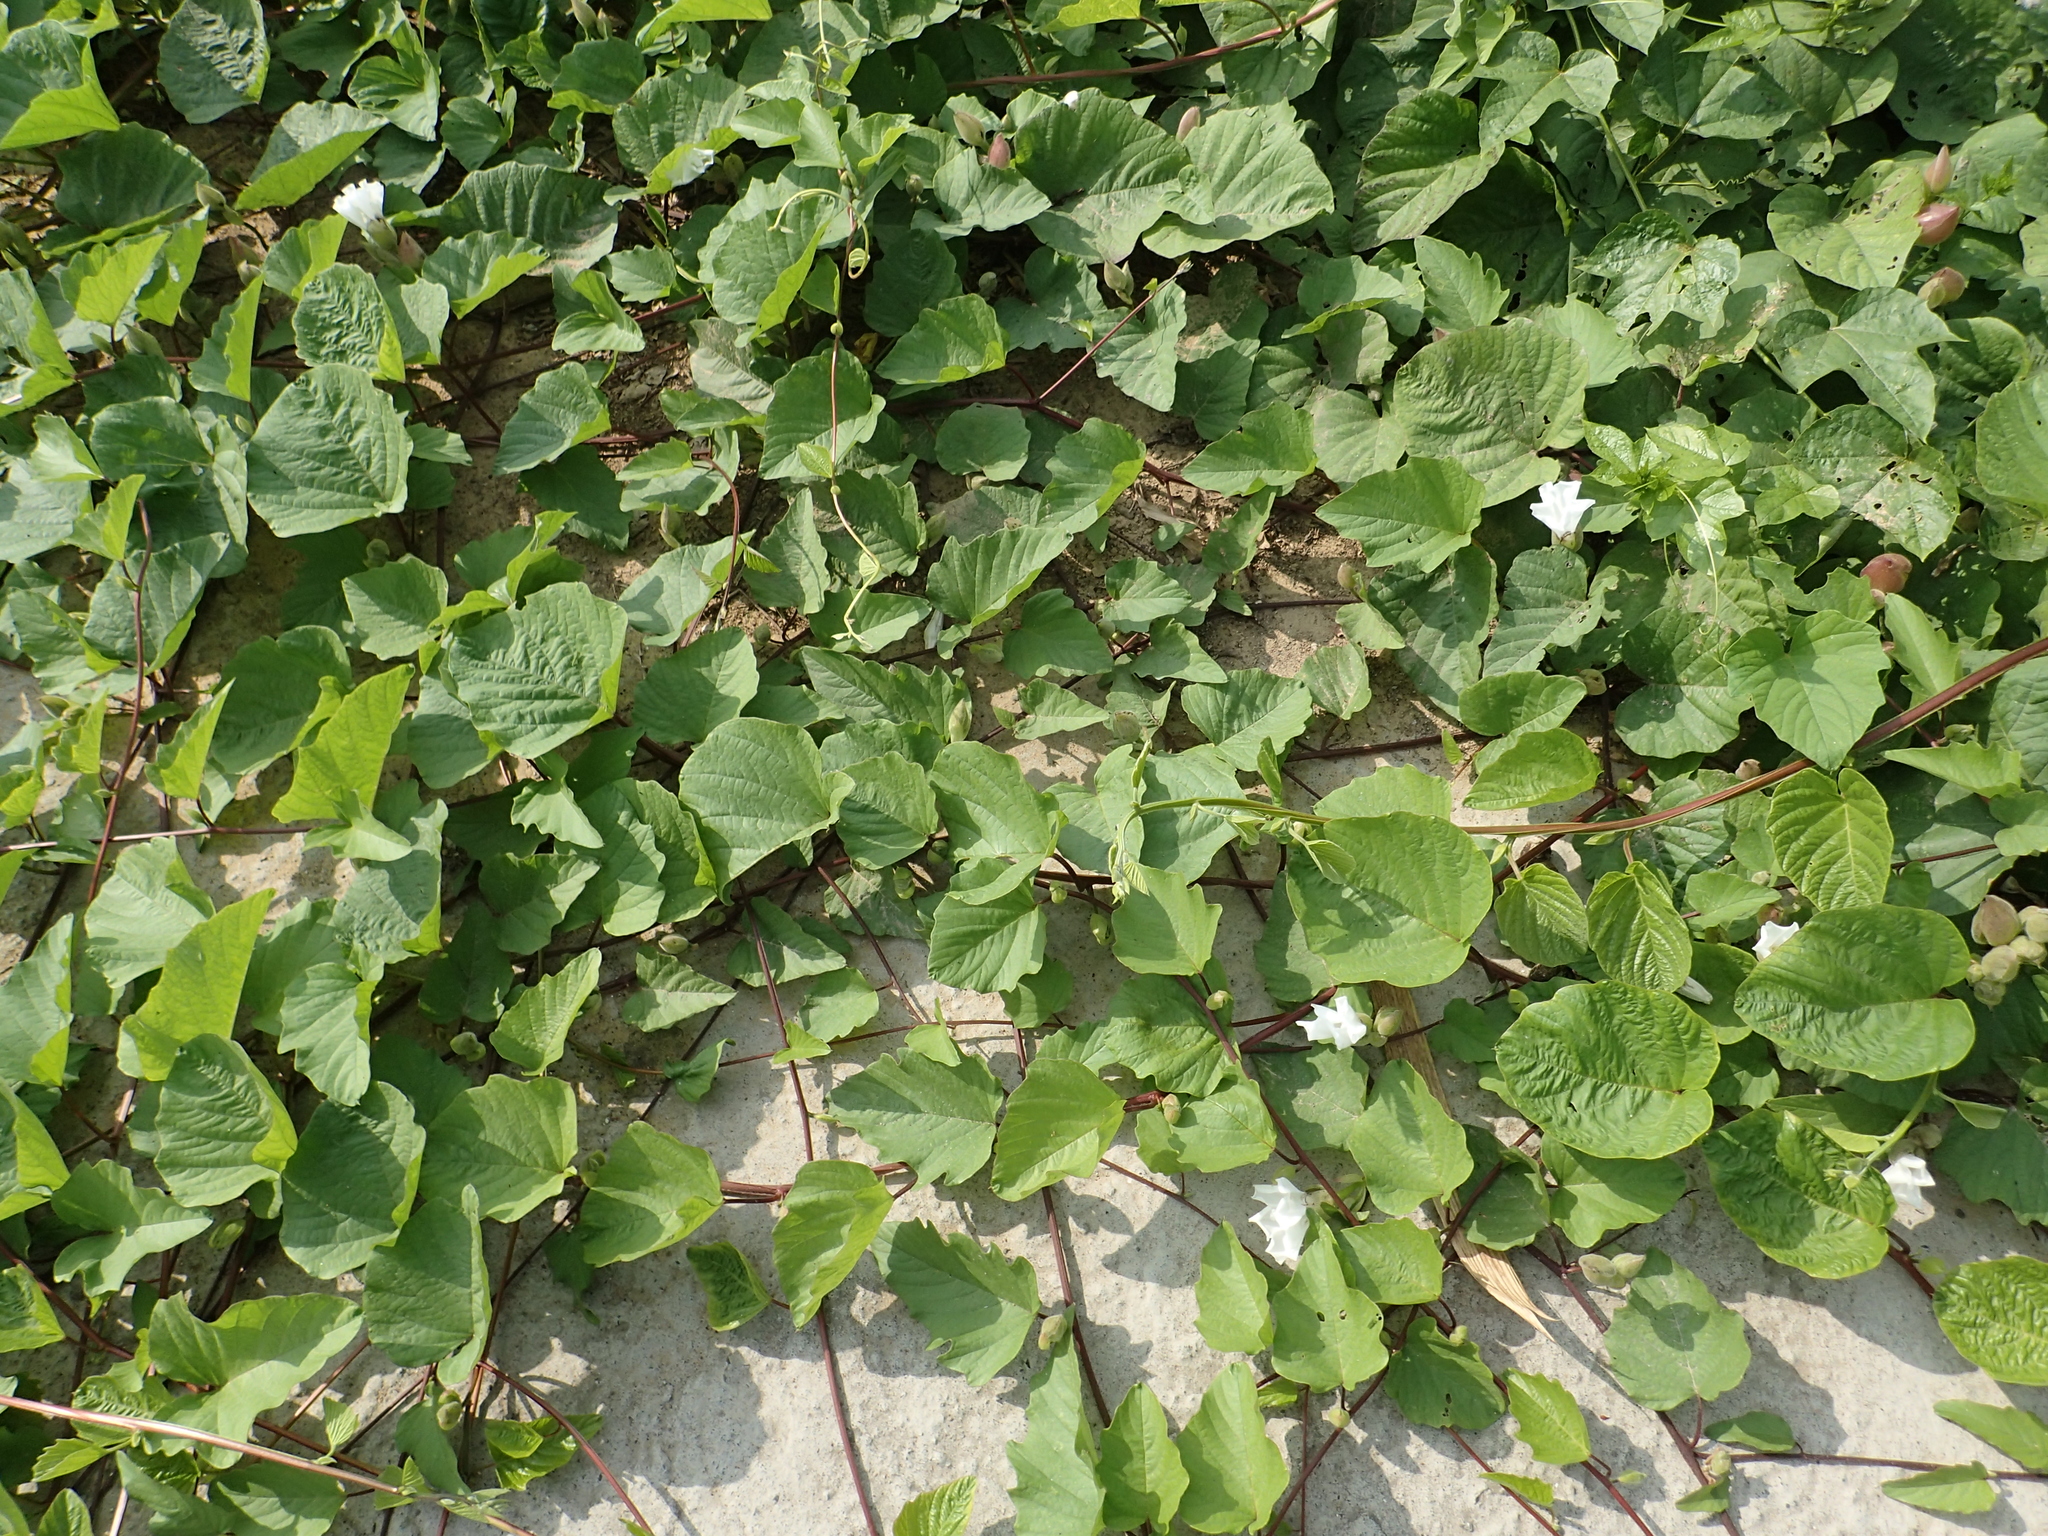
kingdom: Plantae
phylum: Tracheophyta
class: Magnoliopsida
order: Solanales
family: Convolvulaceae
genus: Operculina
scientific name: Operculina turpethum
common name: Transparent wood-rose
